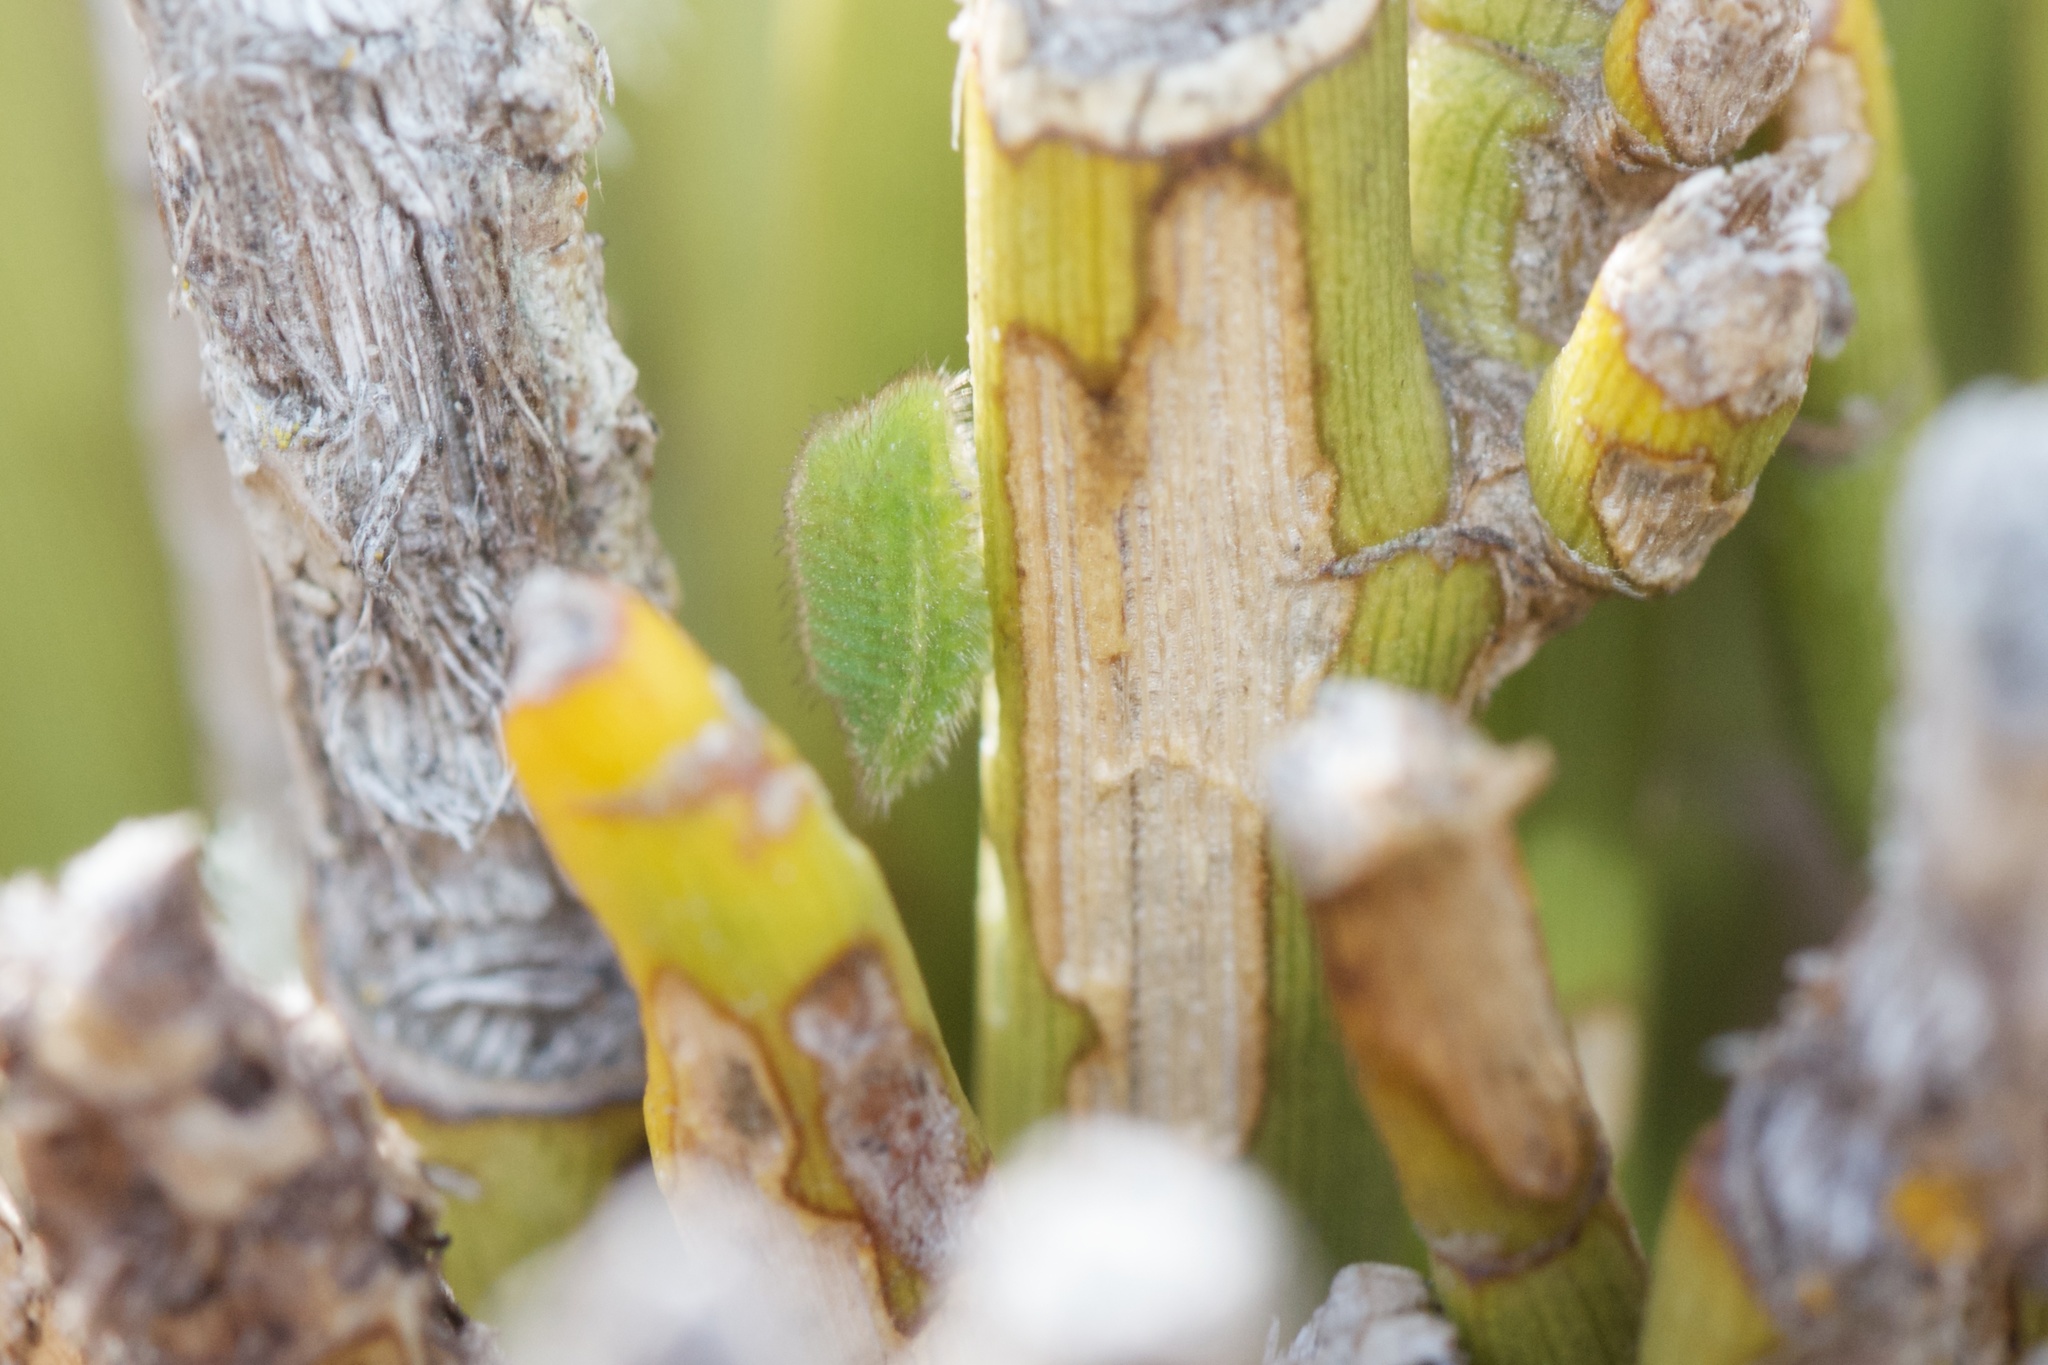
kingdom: Animalia
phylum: Arthropoda
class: Insecta
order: Lepidoptera
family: Lycaenidae
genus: Zizina
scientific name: Zizina oxleyi
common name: Southern blue
